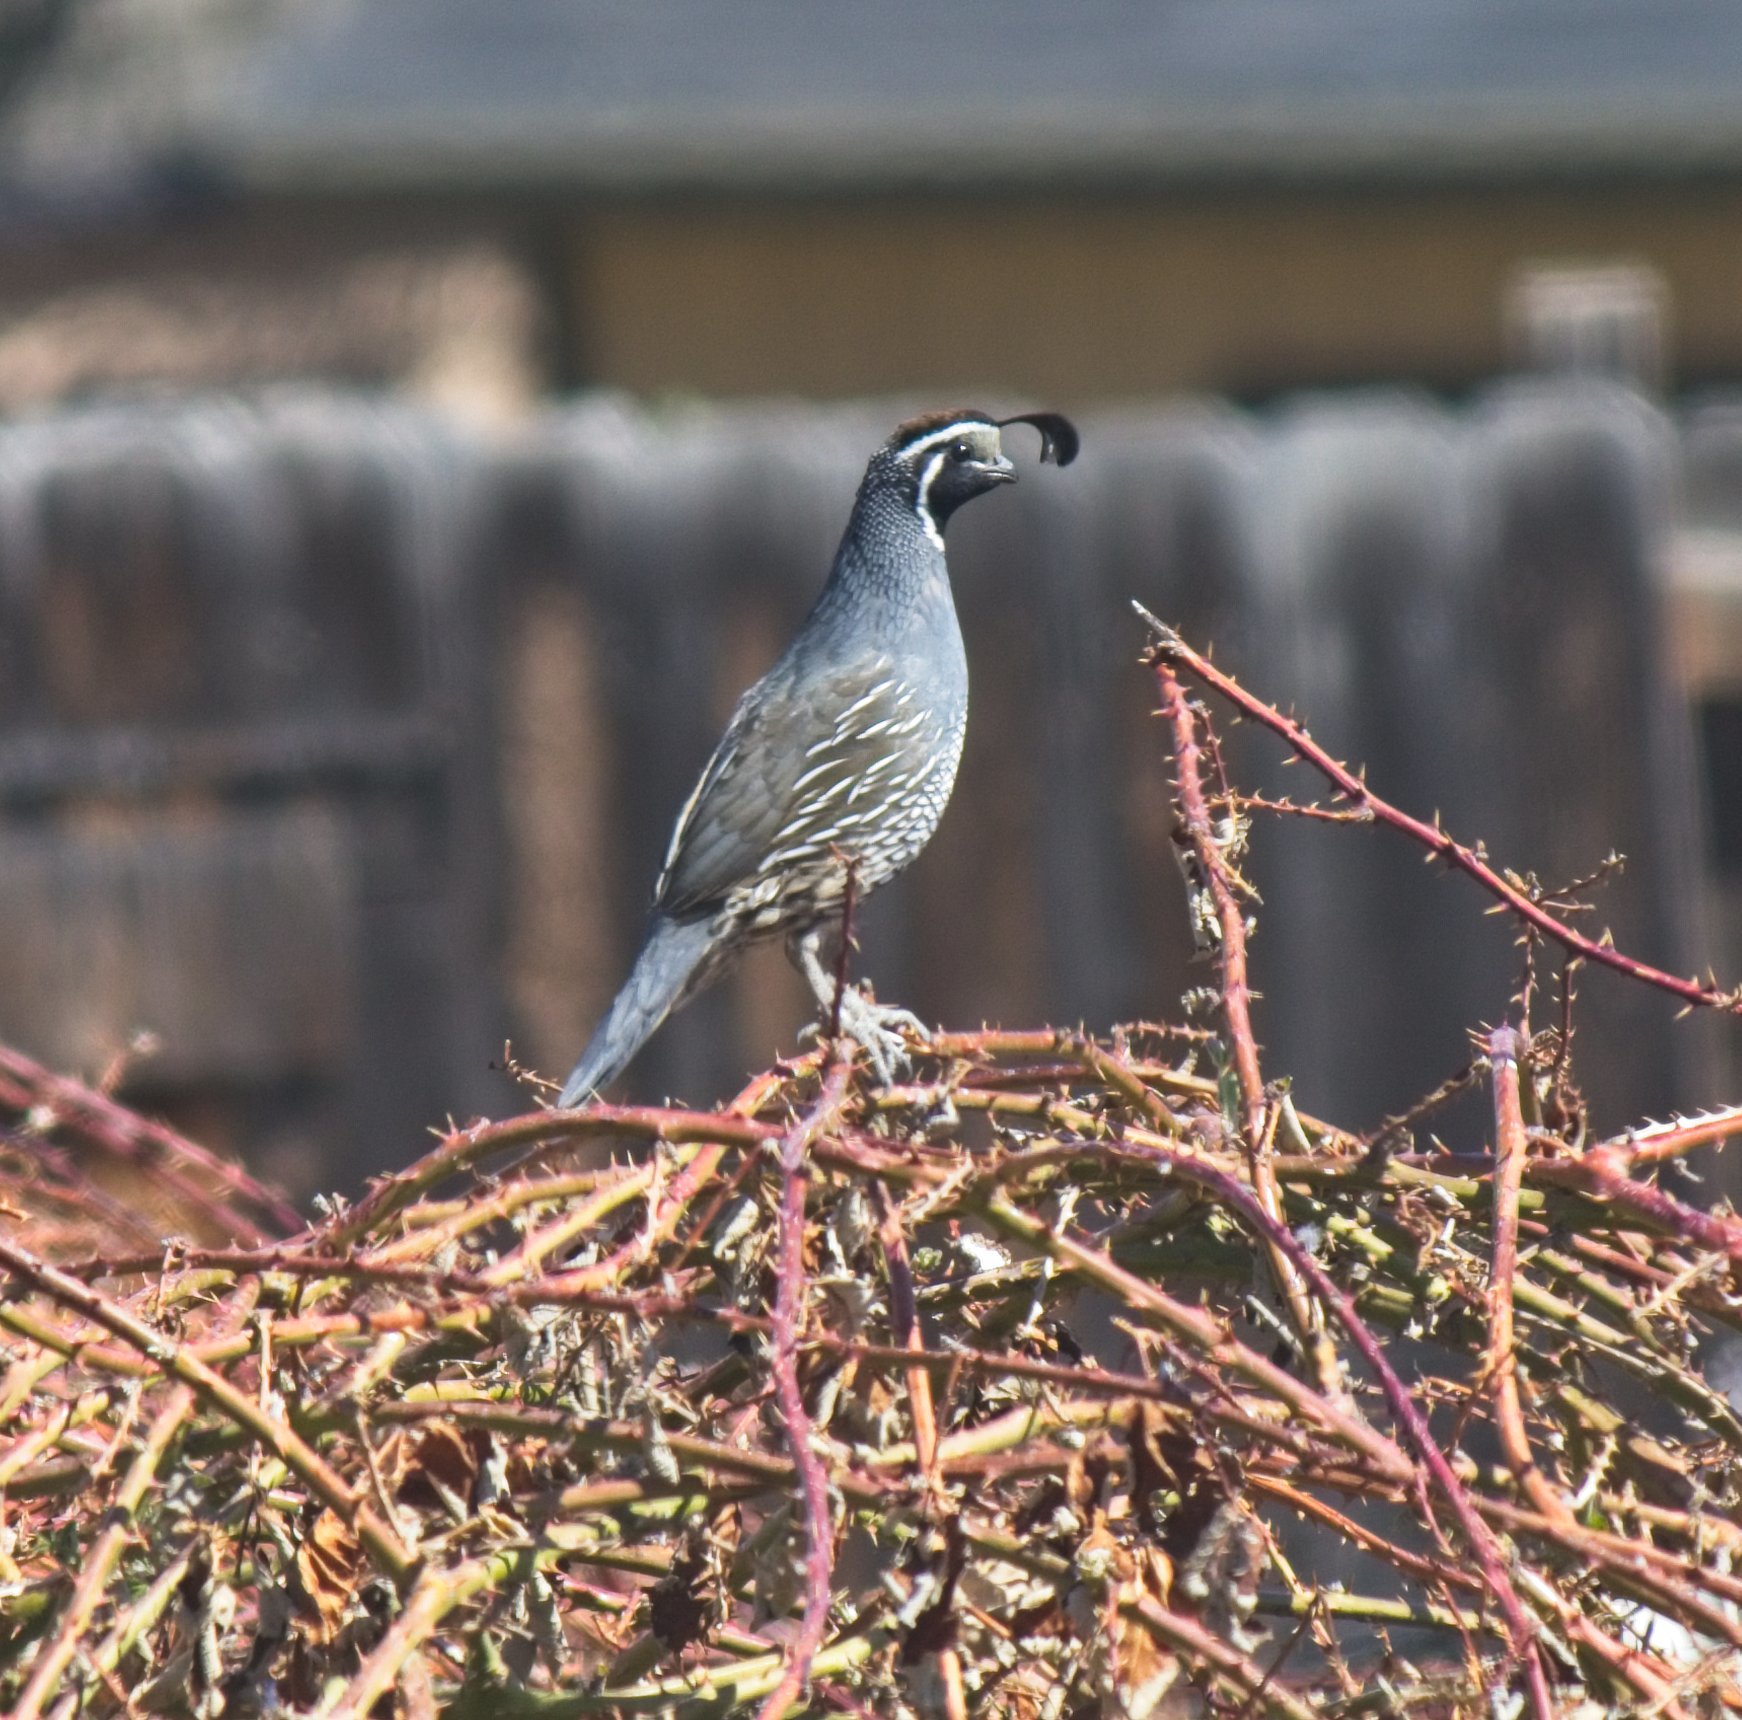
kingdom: Animalia
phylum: Chordata
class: Aves
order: Galliformes
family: Odontophoridae
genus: Callipepla
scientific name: Callipepla californica
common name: California quail
